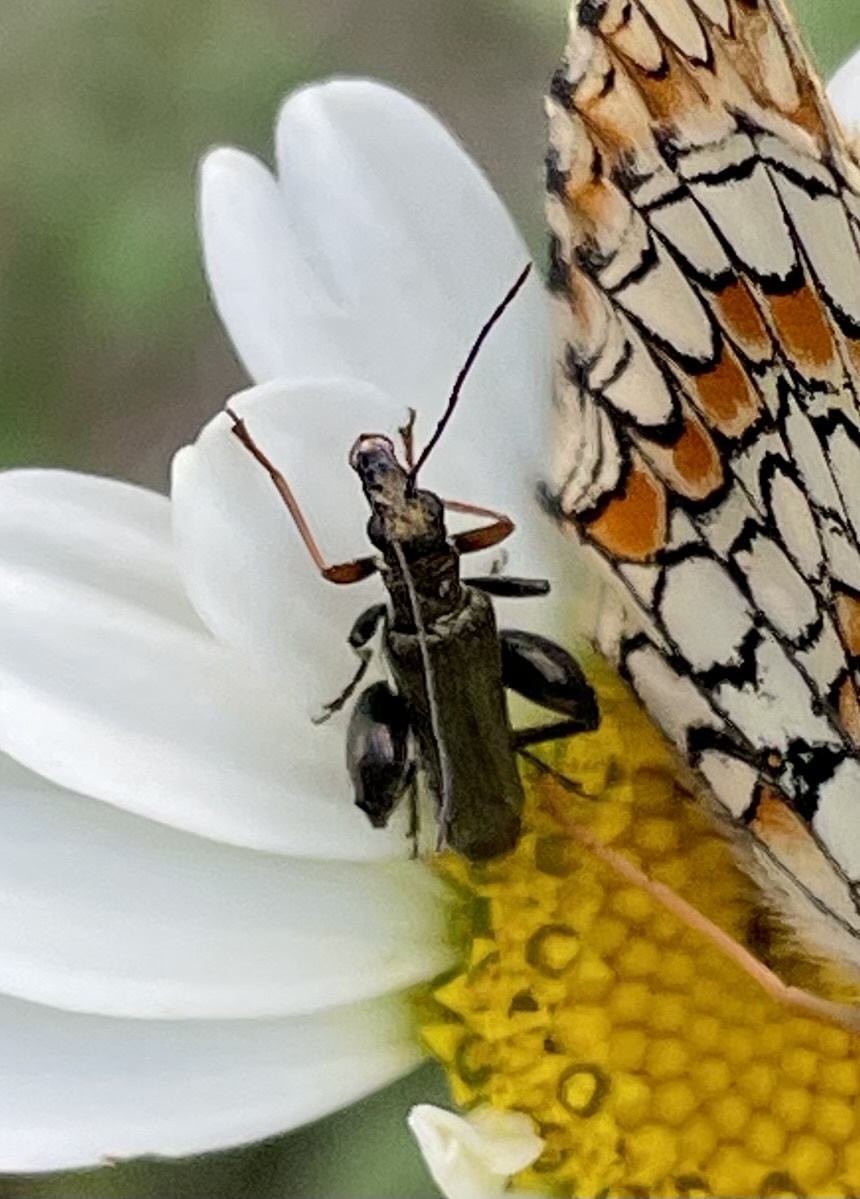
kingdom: Animalia
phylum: Arthropoda
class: Insecta
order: Coleoptera
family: Oedemeridae
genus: Oedemera
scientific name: Oedemera flavipes
